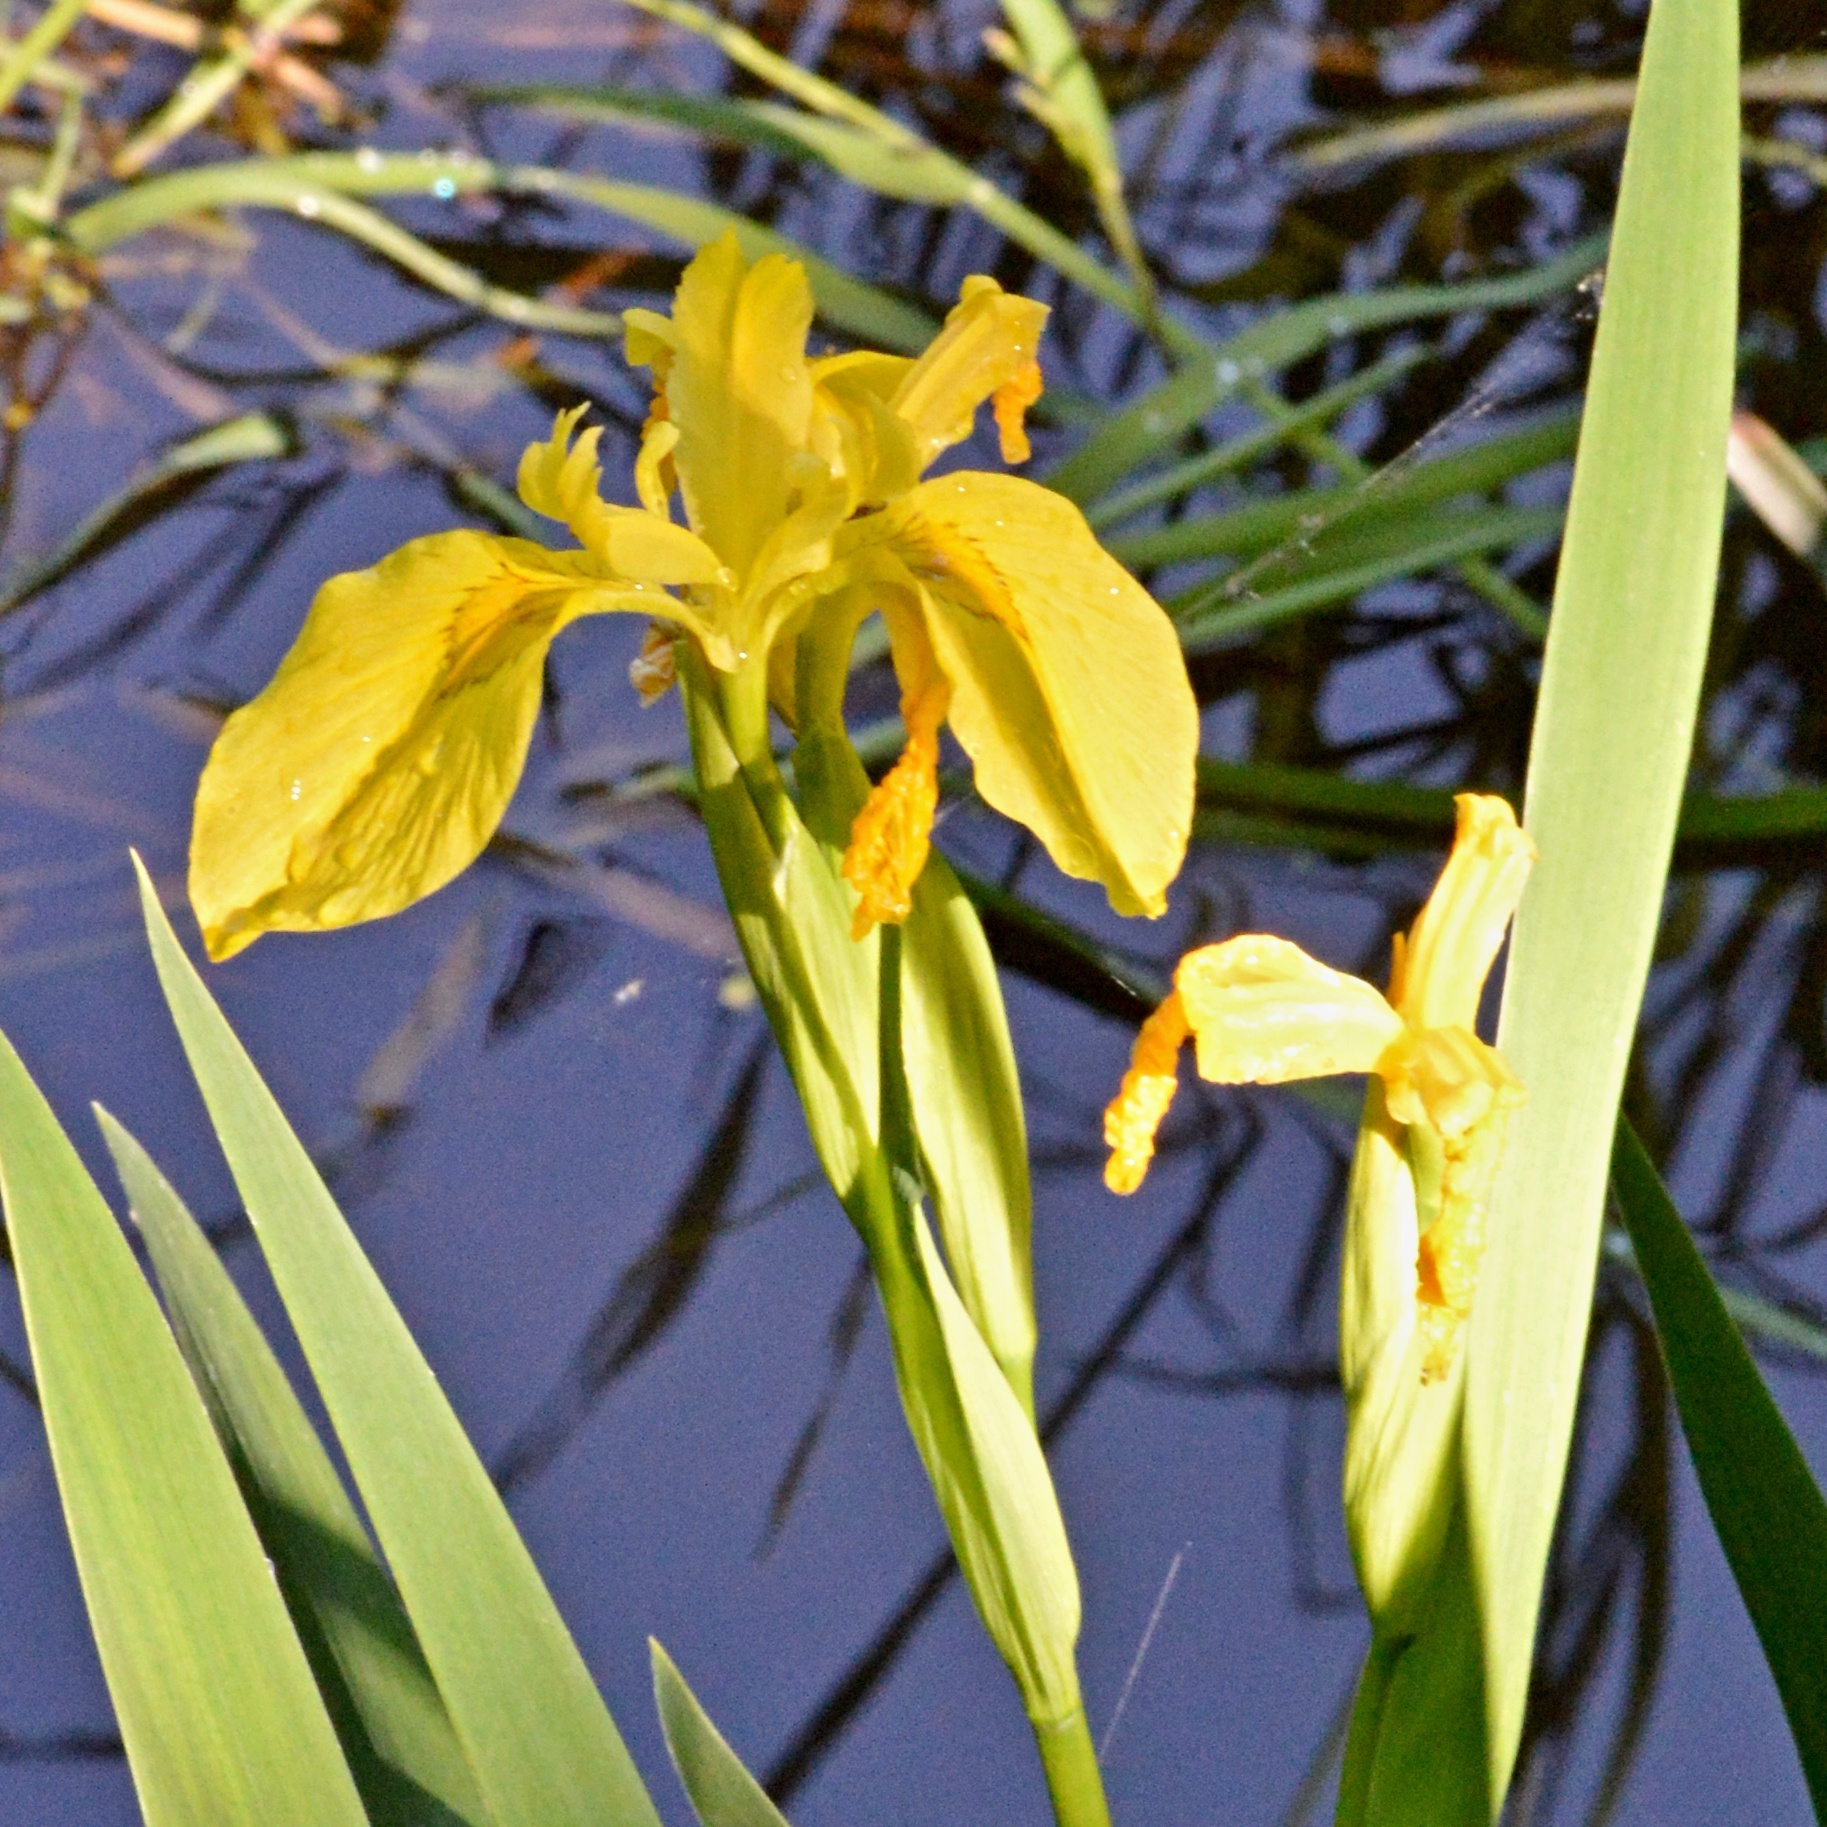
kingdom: Plantae
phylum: Tracheophyta
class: Liliopsida
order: Asparagales
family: Iridaceae
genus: Iris
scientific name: Iris pseudacorus
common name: Yellow flag
